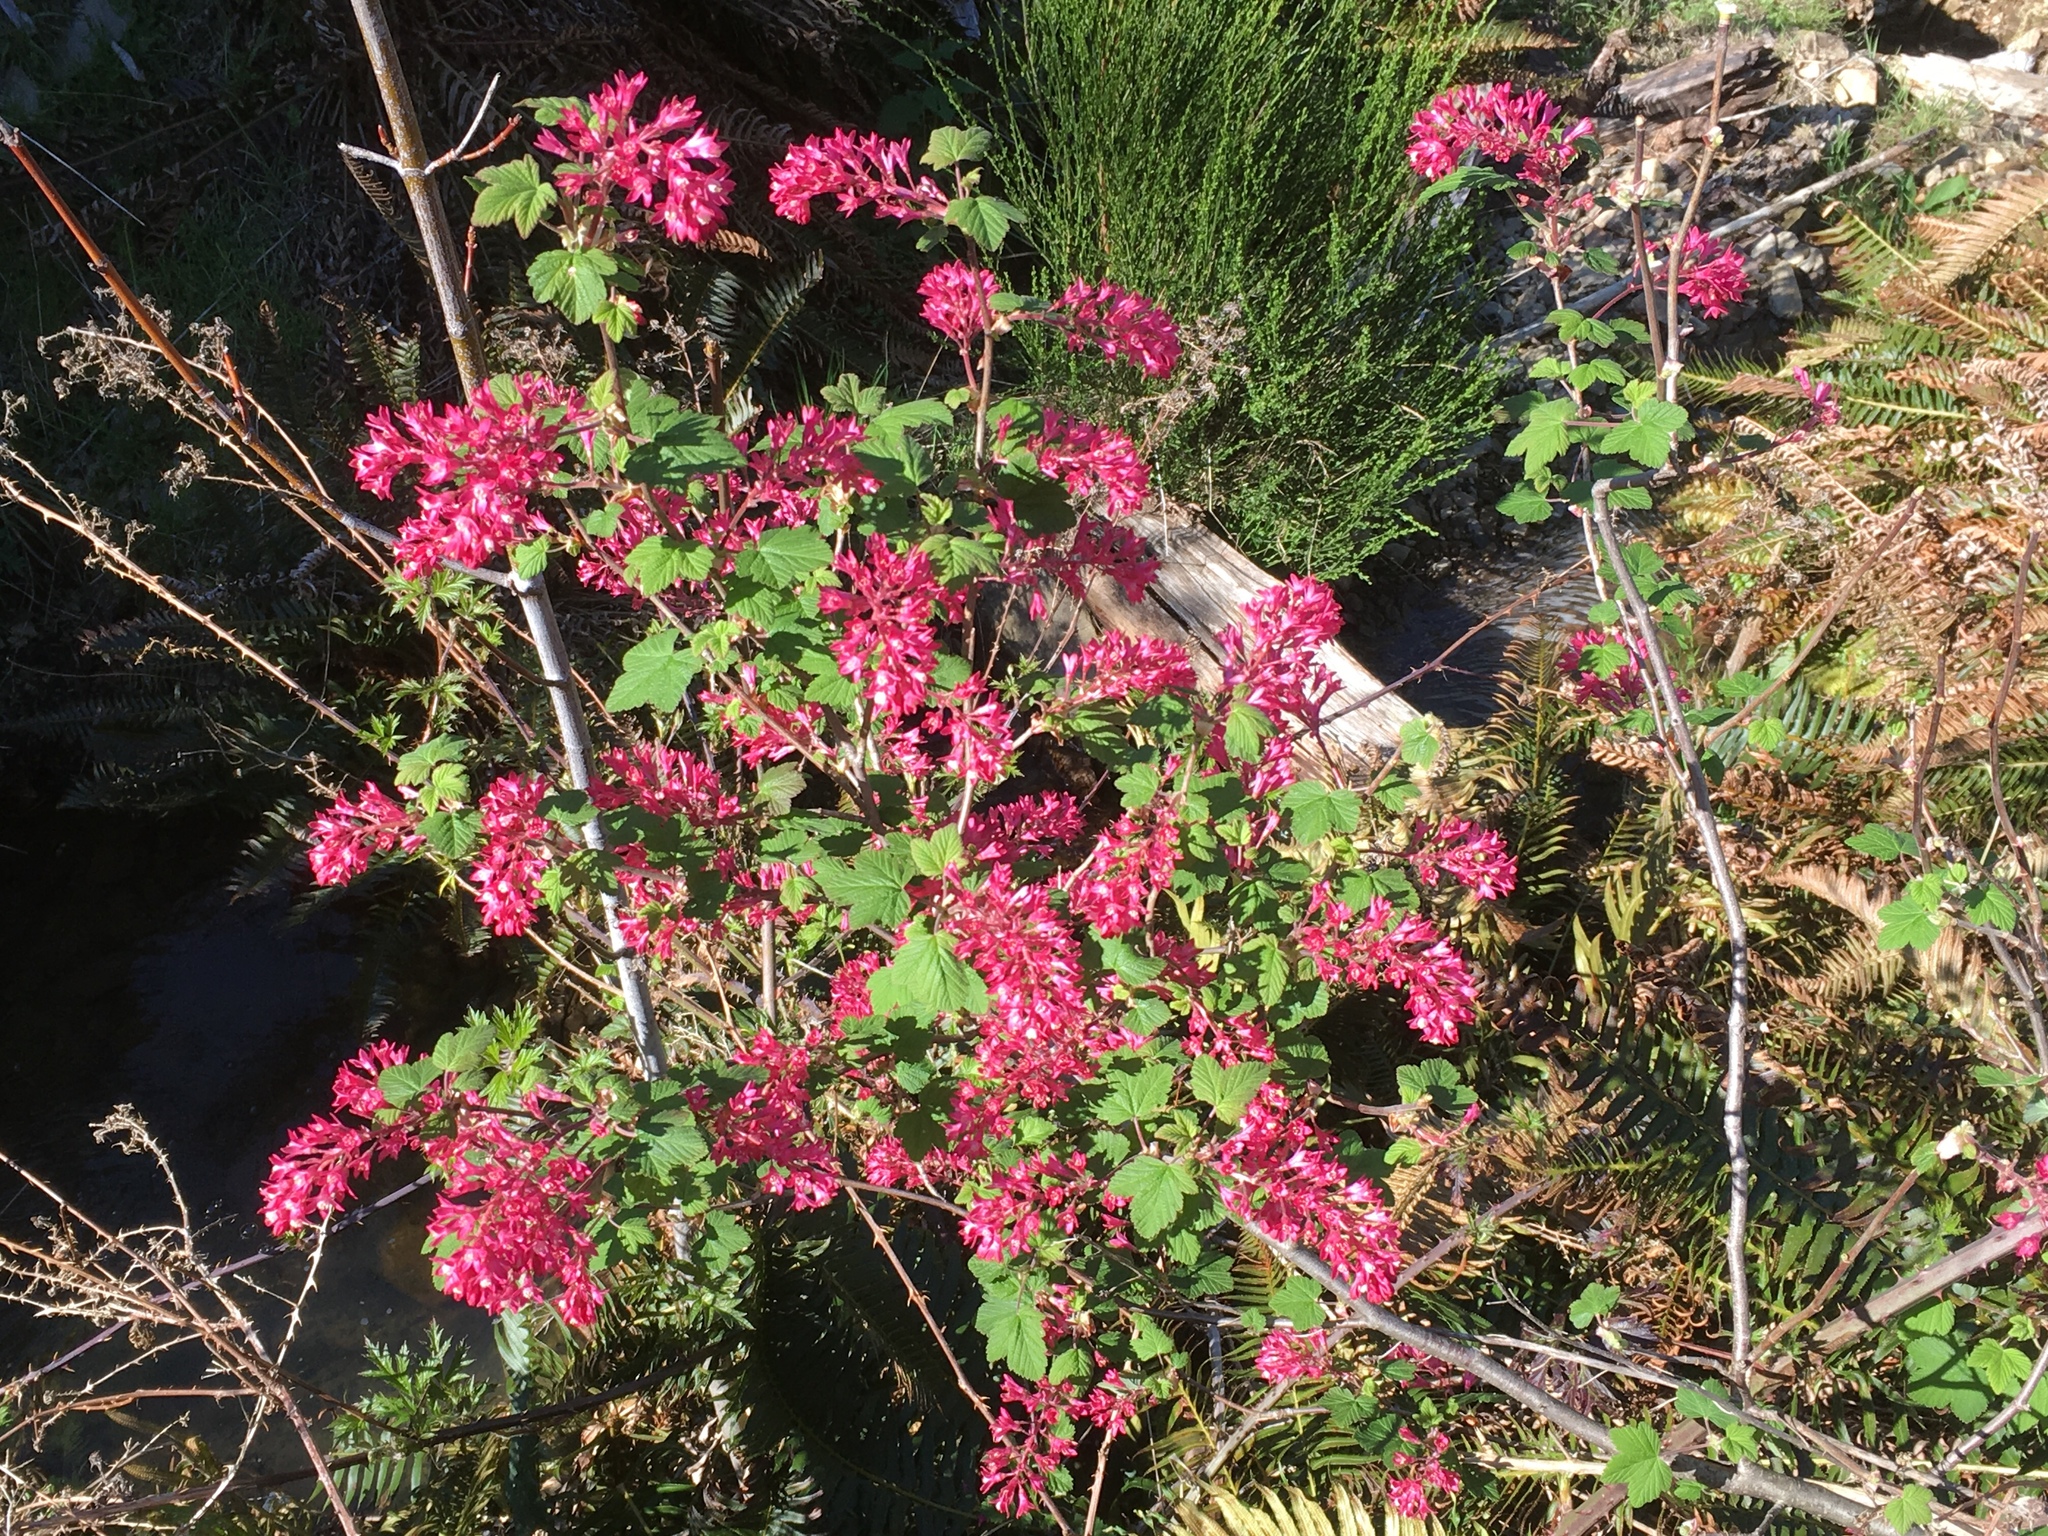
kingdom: Plantae
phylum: Tracheophyta
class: Magnoliopsida
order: Saxifragales
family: Grossulariaceae
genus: Ribes
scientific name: Ribes sanguineum
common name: Flowering currant
